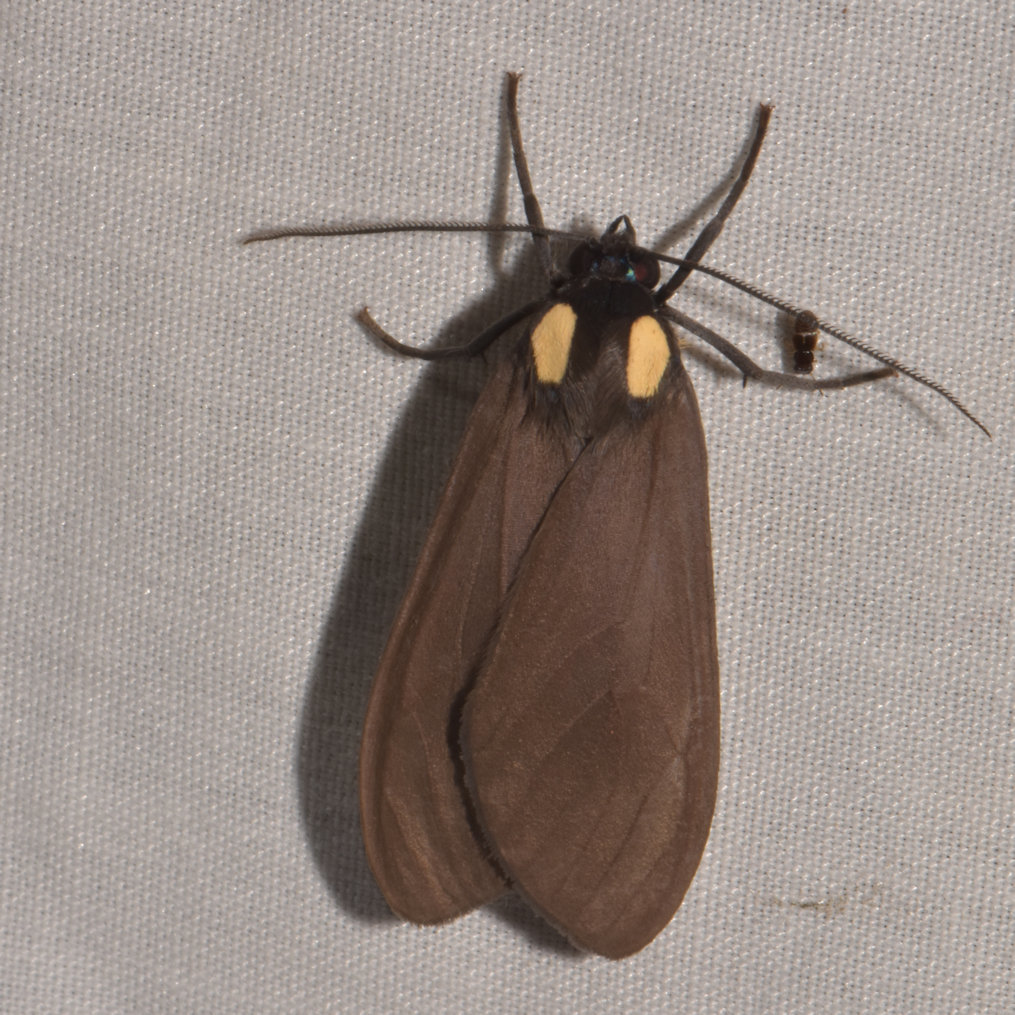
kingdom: Animalia
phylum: Arthropoda
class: Insecta
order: Lepidoptera
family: Erebidae
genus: Opharus
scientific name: Opharus bimaculata
